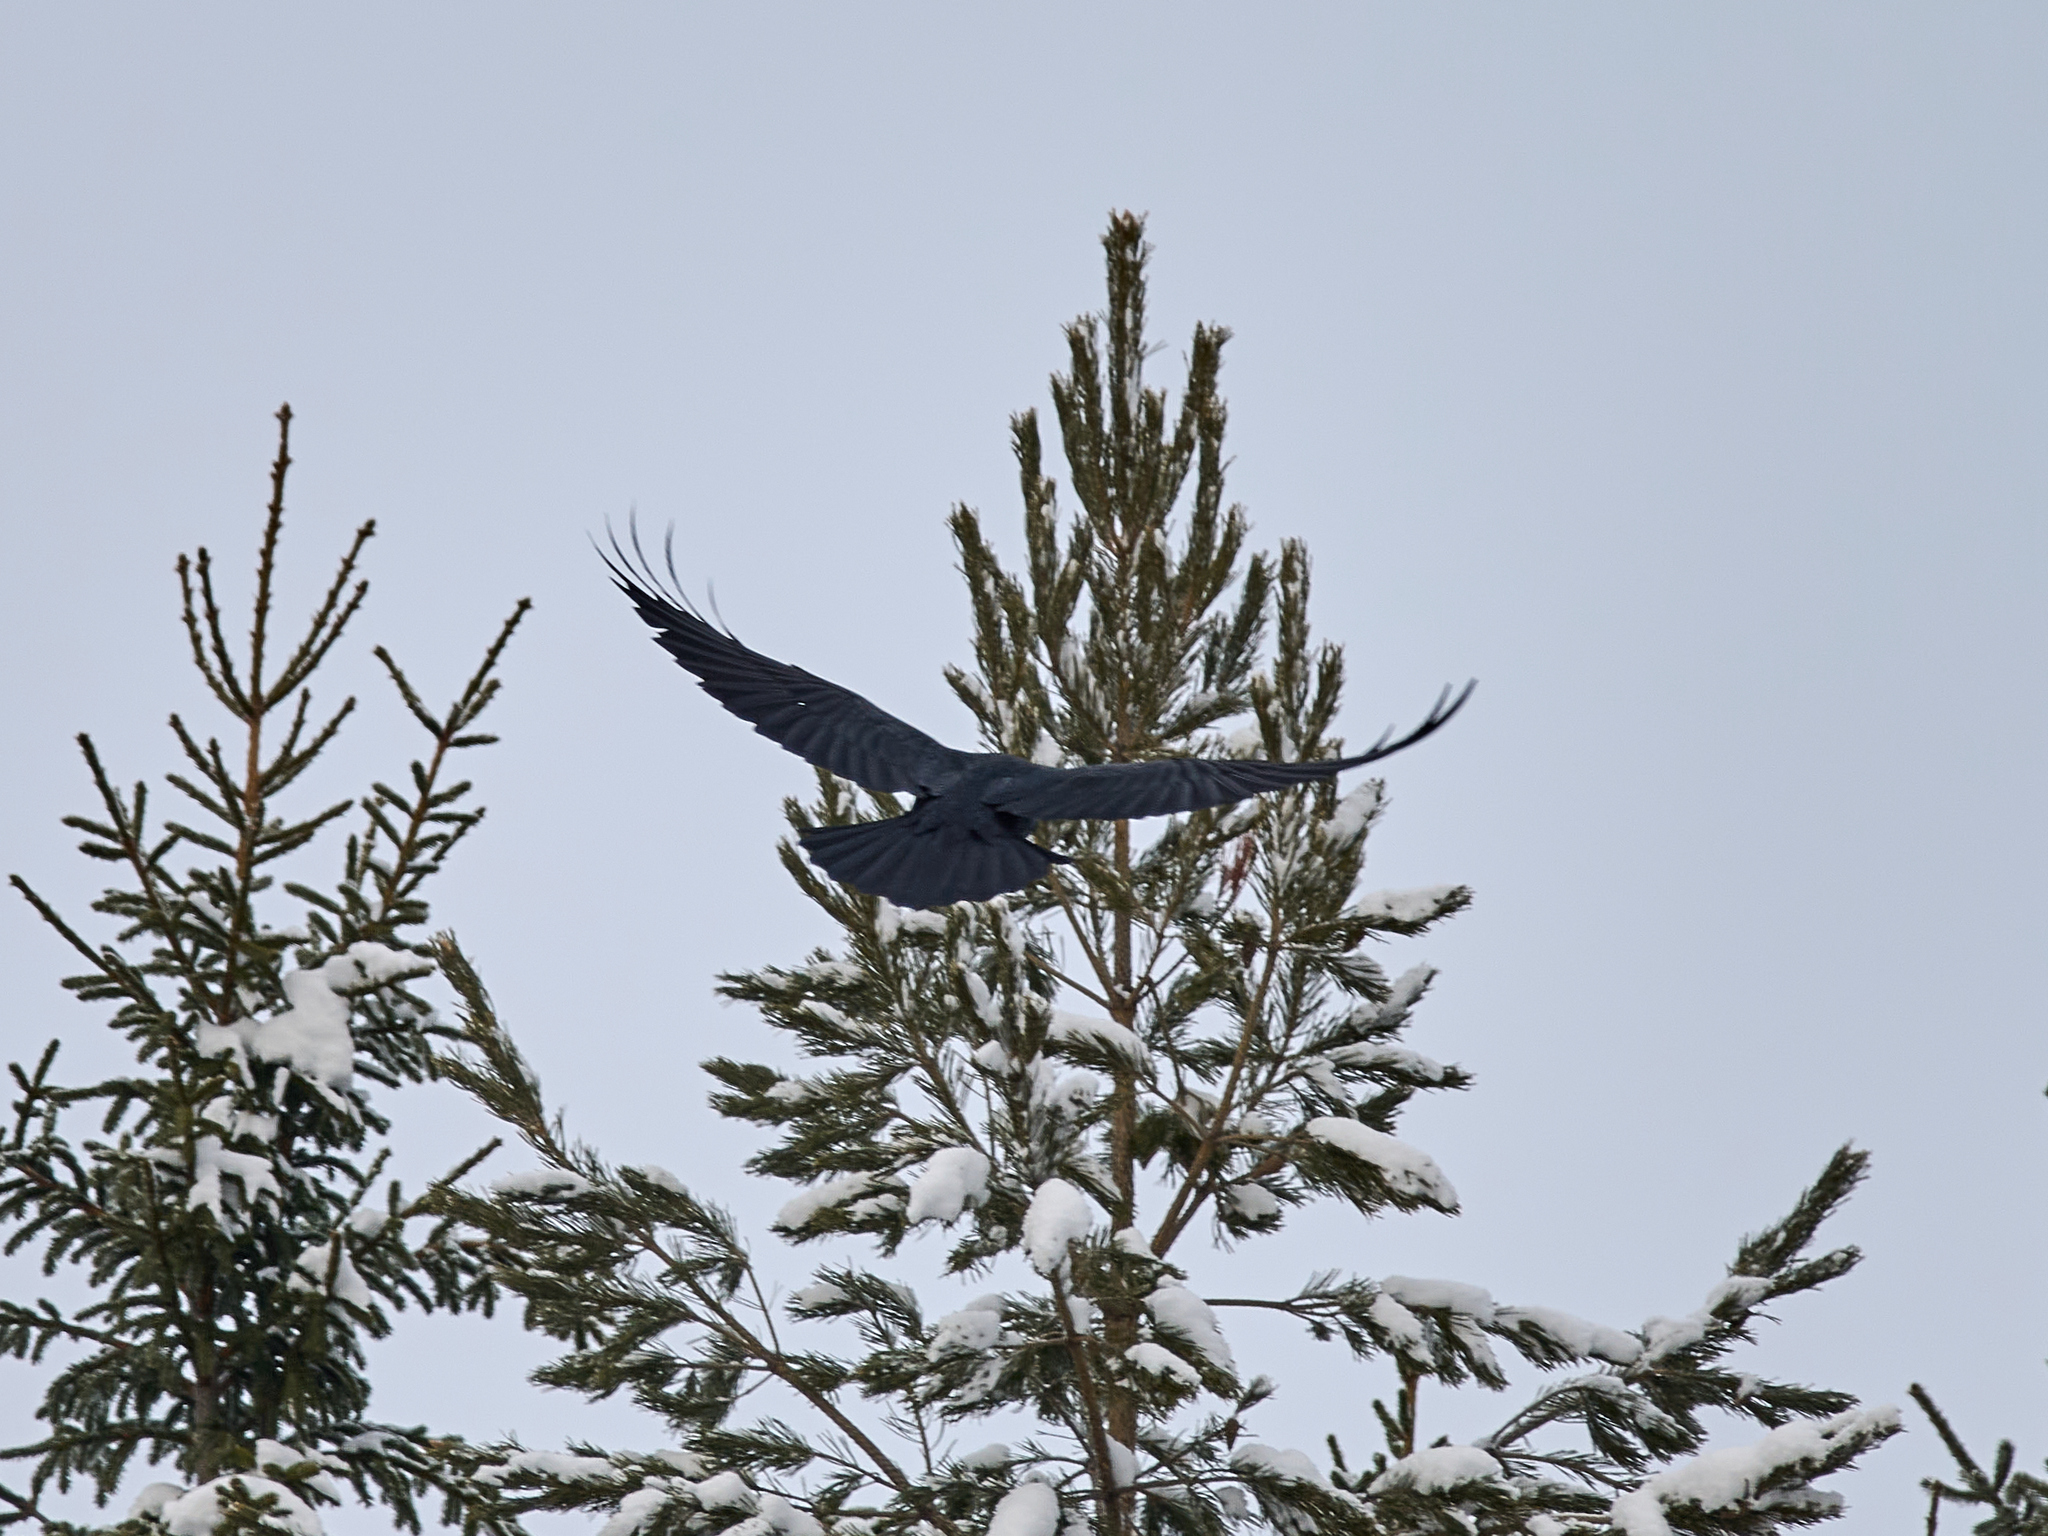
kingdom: Animalia
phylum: Chordata
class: Aves
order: Passeriformes
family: Corvidae
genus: Corvus
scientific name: Corvus corax
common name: Common raven
